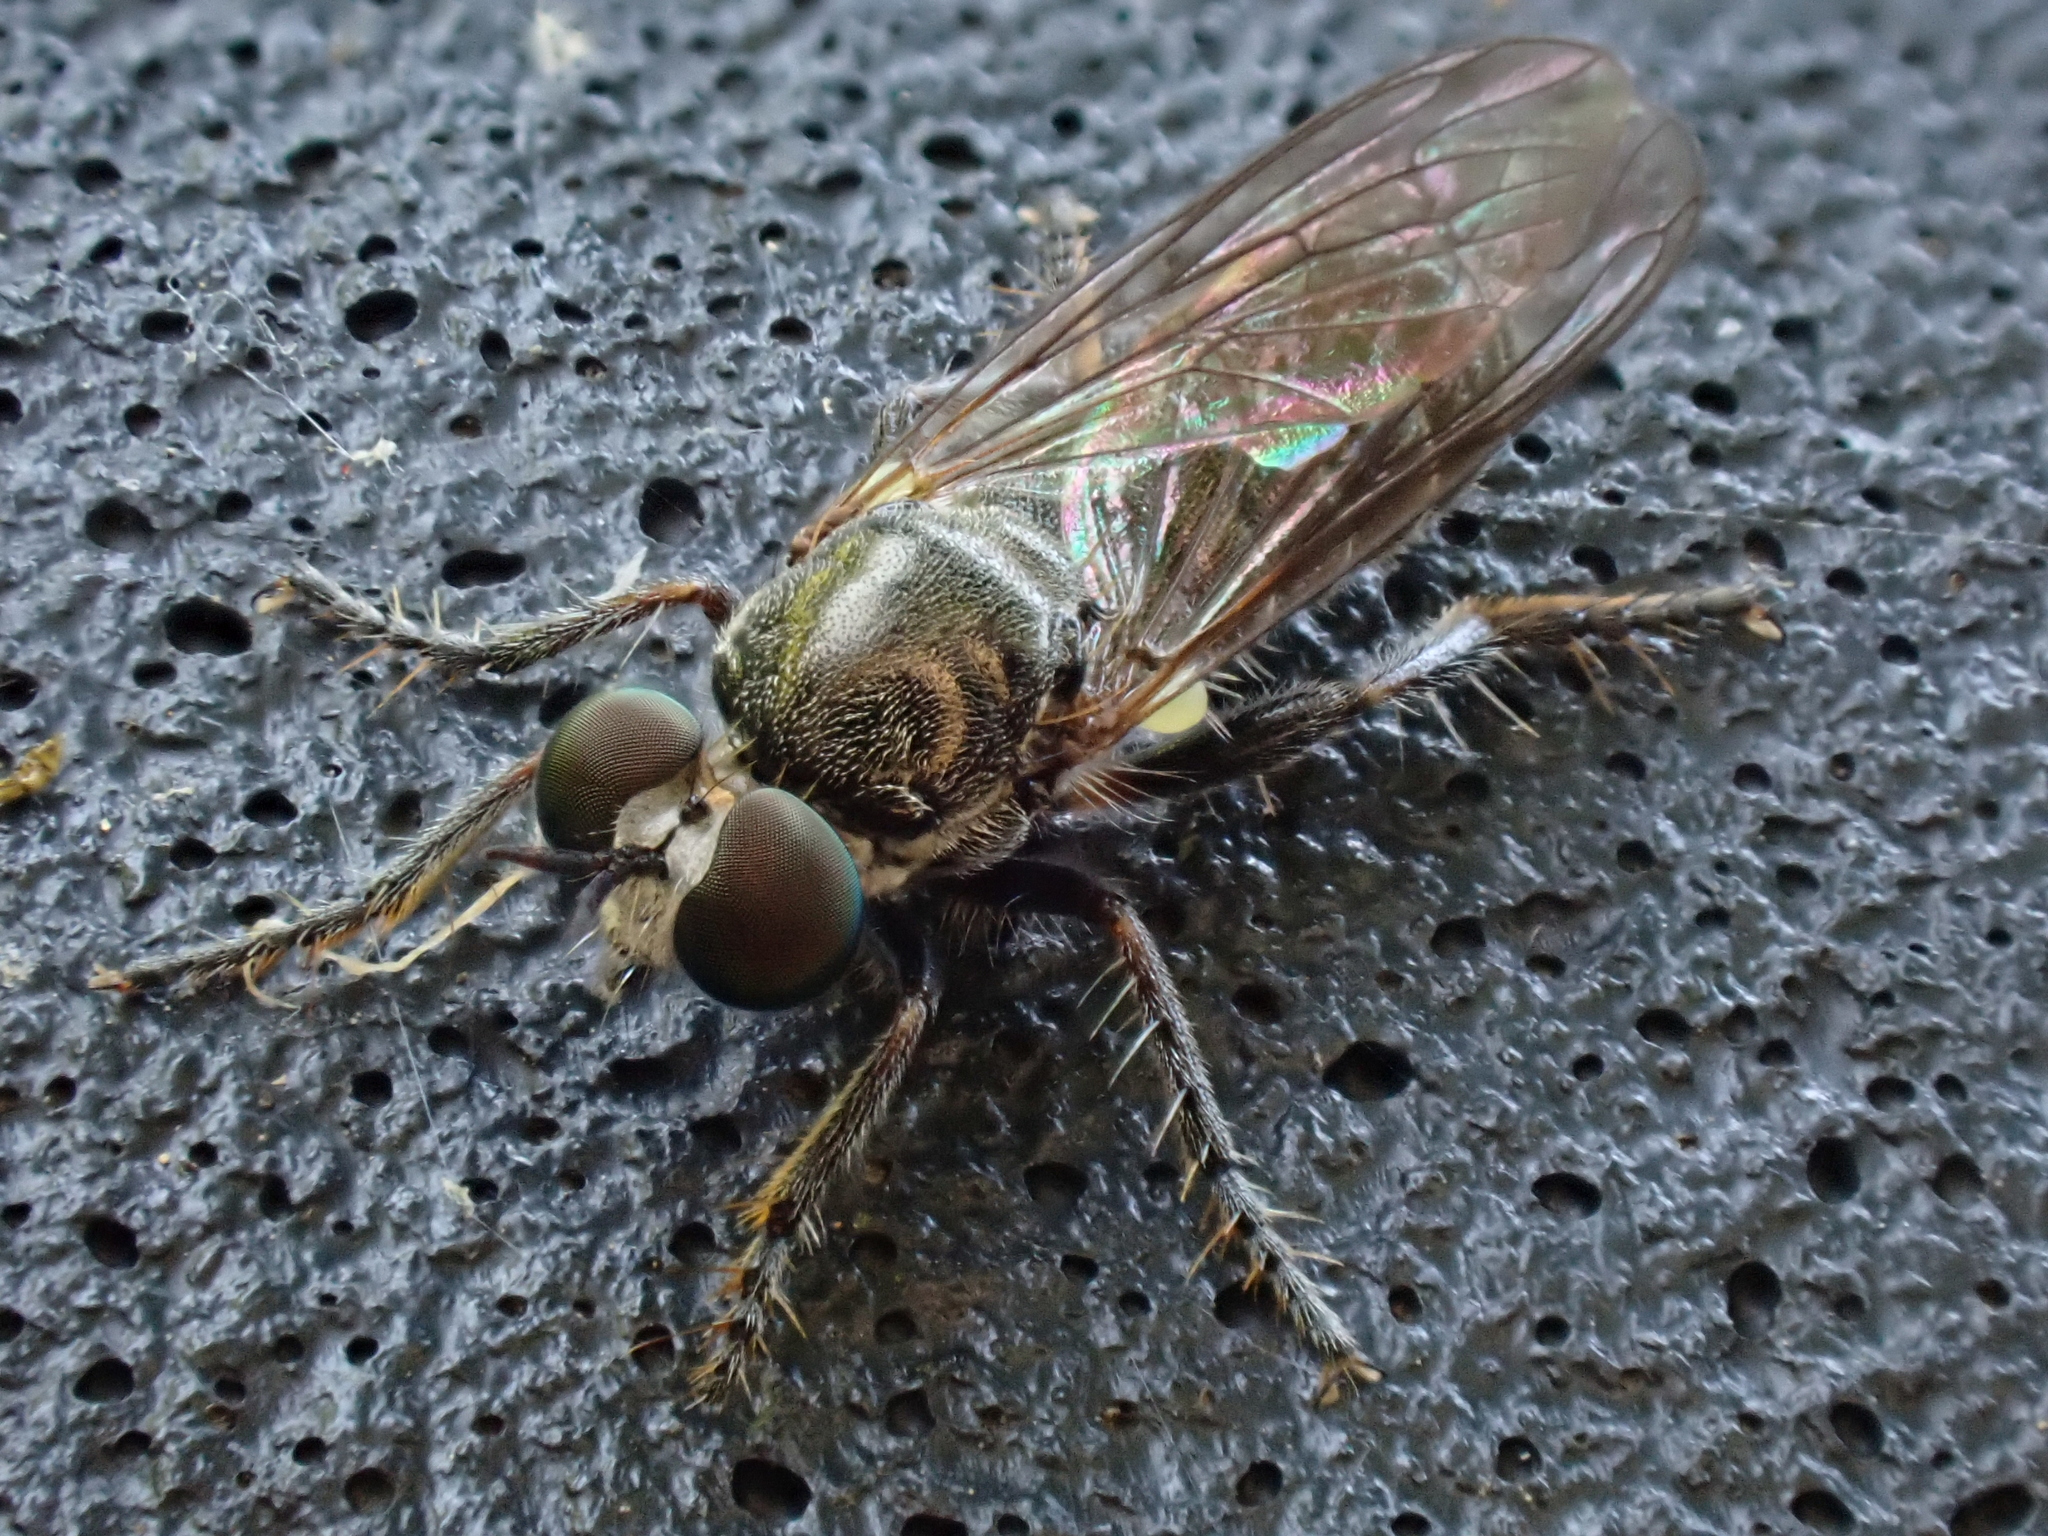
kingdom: Animalia
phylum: Arthropoda
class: Insecta
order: Diptera
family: Asilidae
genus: Atomosia
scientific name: Atomosia puella
